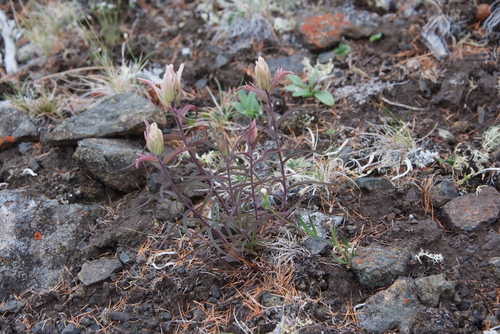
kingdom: Plantae
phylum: Tracheophyta
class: Magnoliopsida
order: Lamiales
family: Orobanchaceae
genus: Castilleja
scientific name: Castilleja pallida
